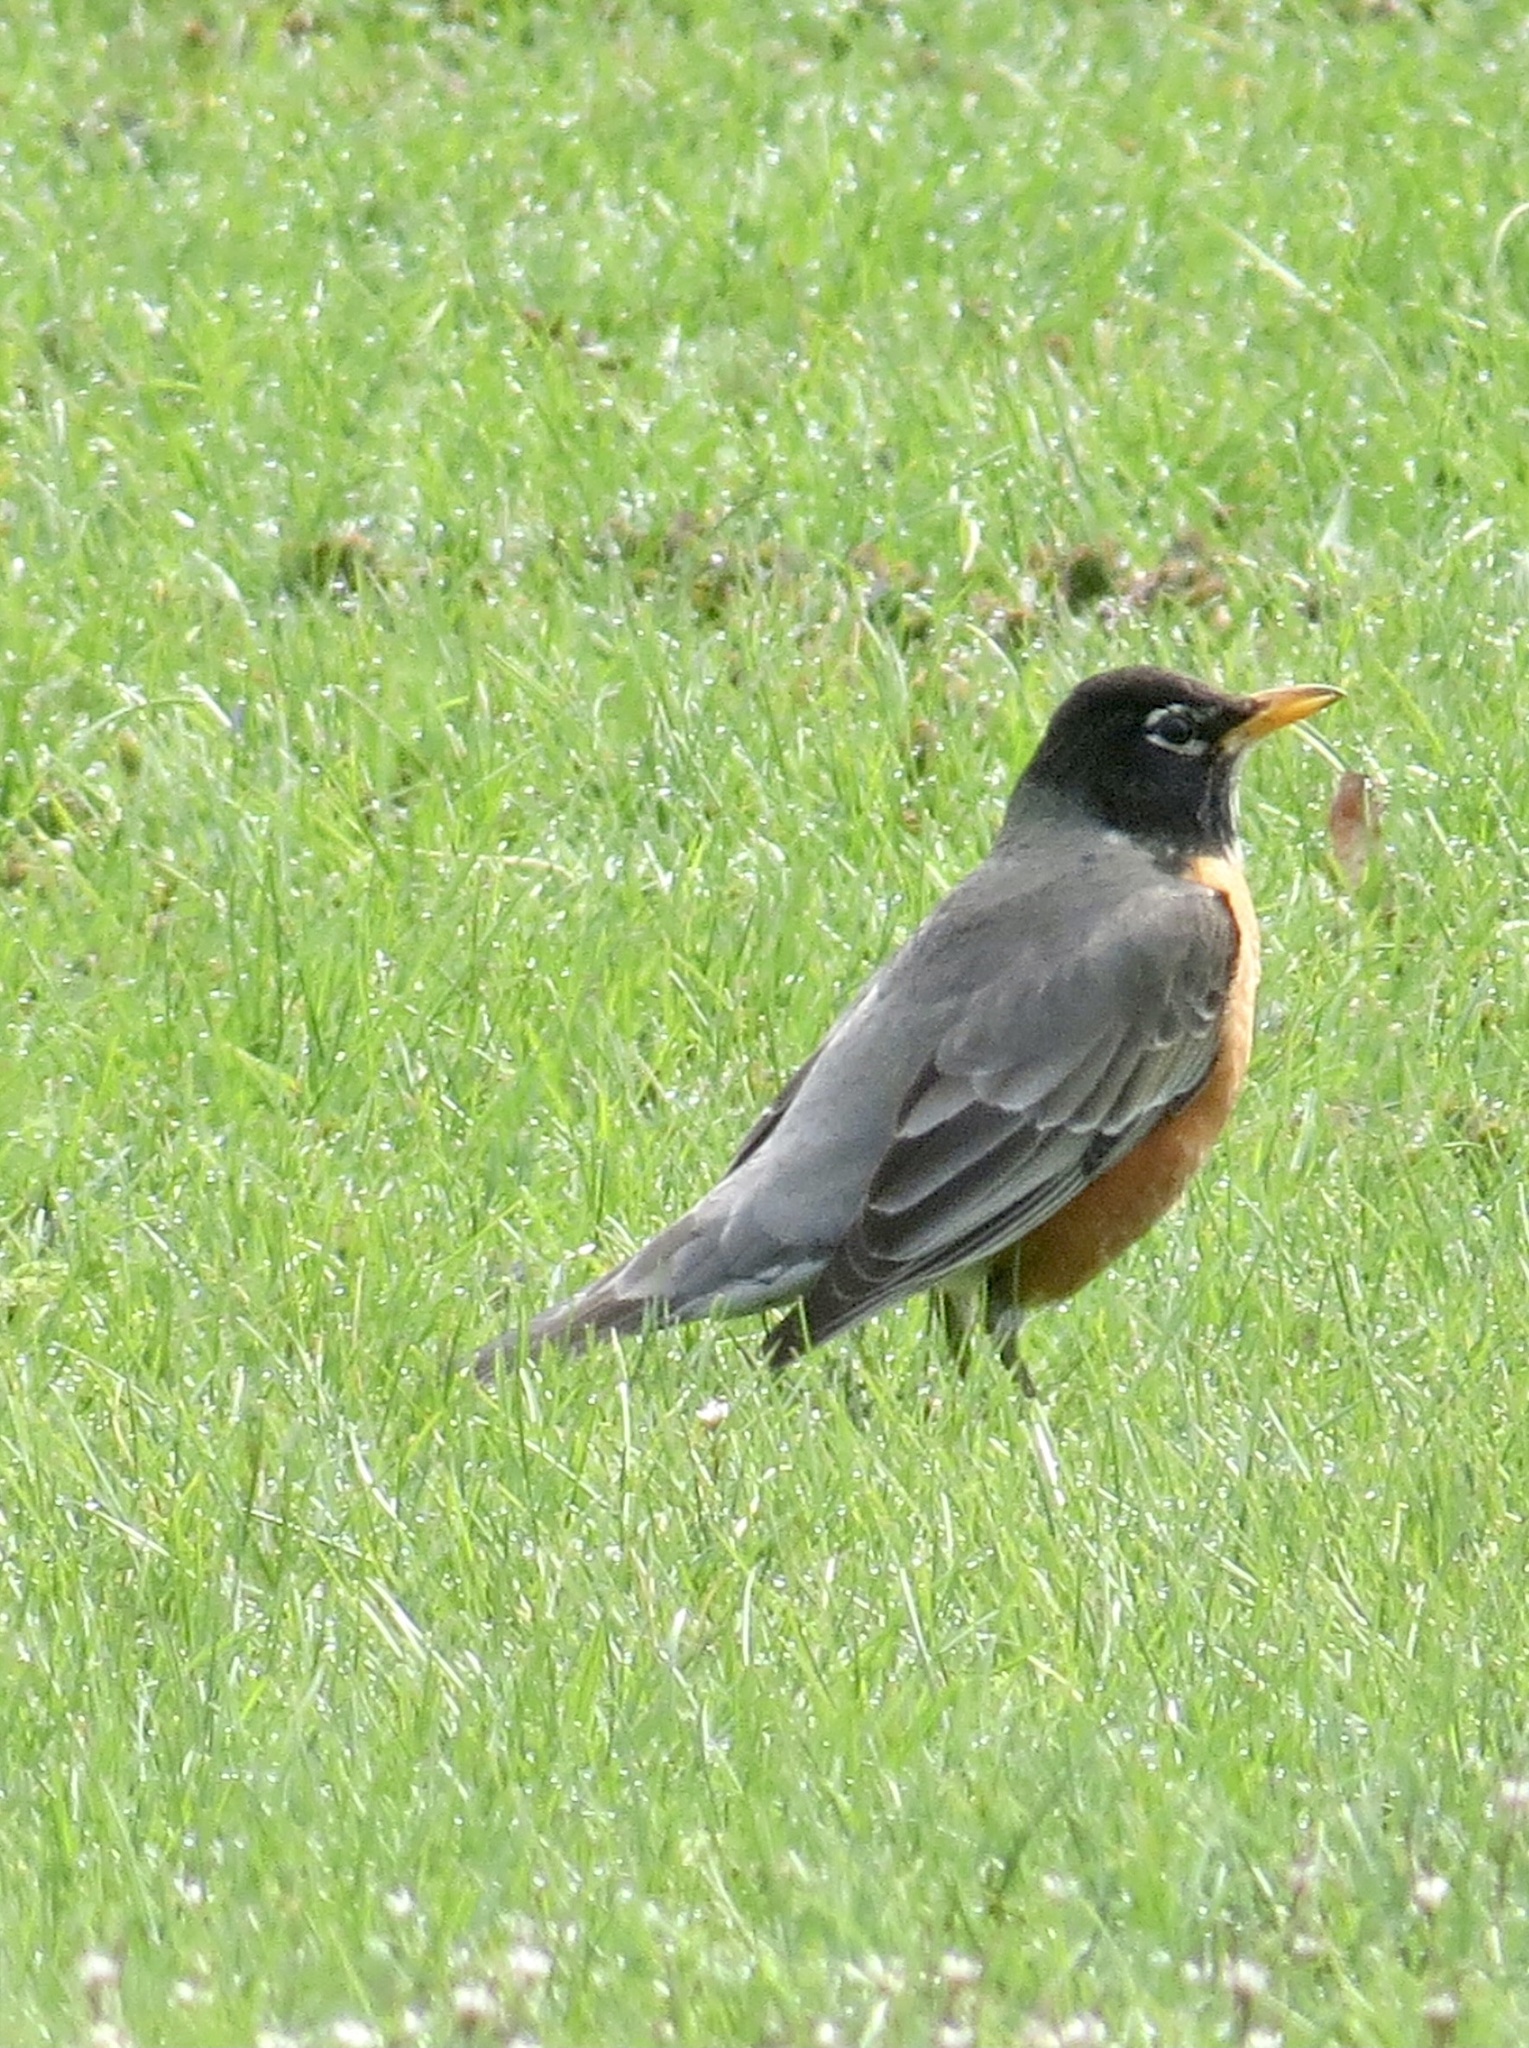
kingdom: Animalia
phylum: Chordata
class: Aves
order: Passeriformes
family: Turdidae
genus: Turdus
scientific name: Turdus migratorius
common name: American robin
